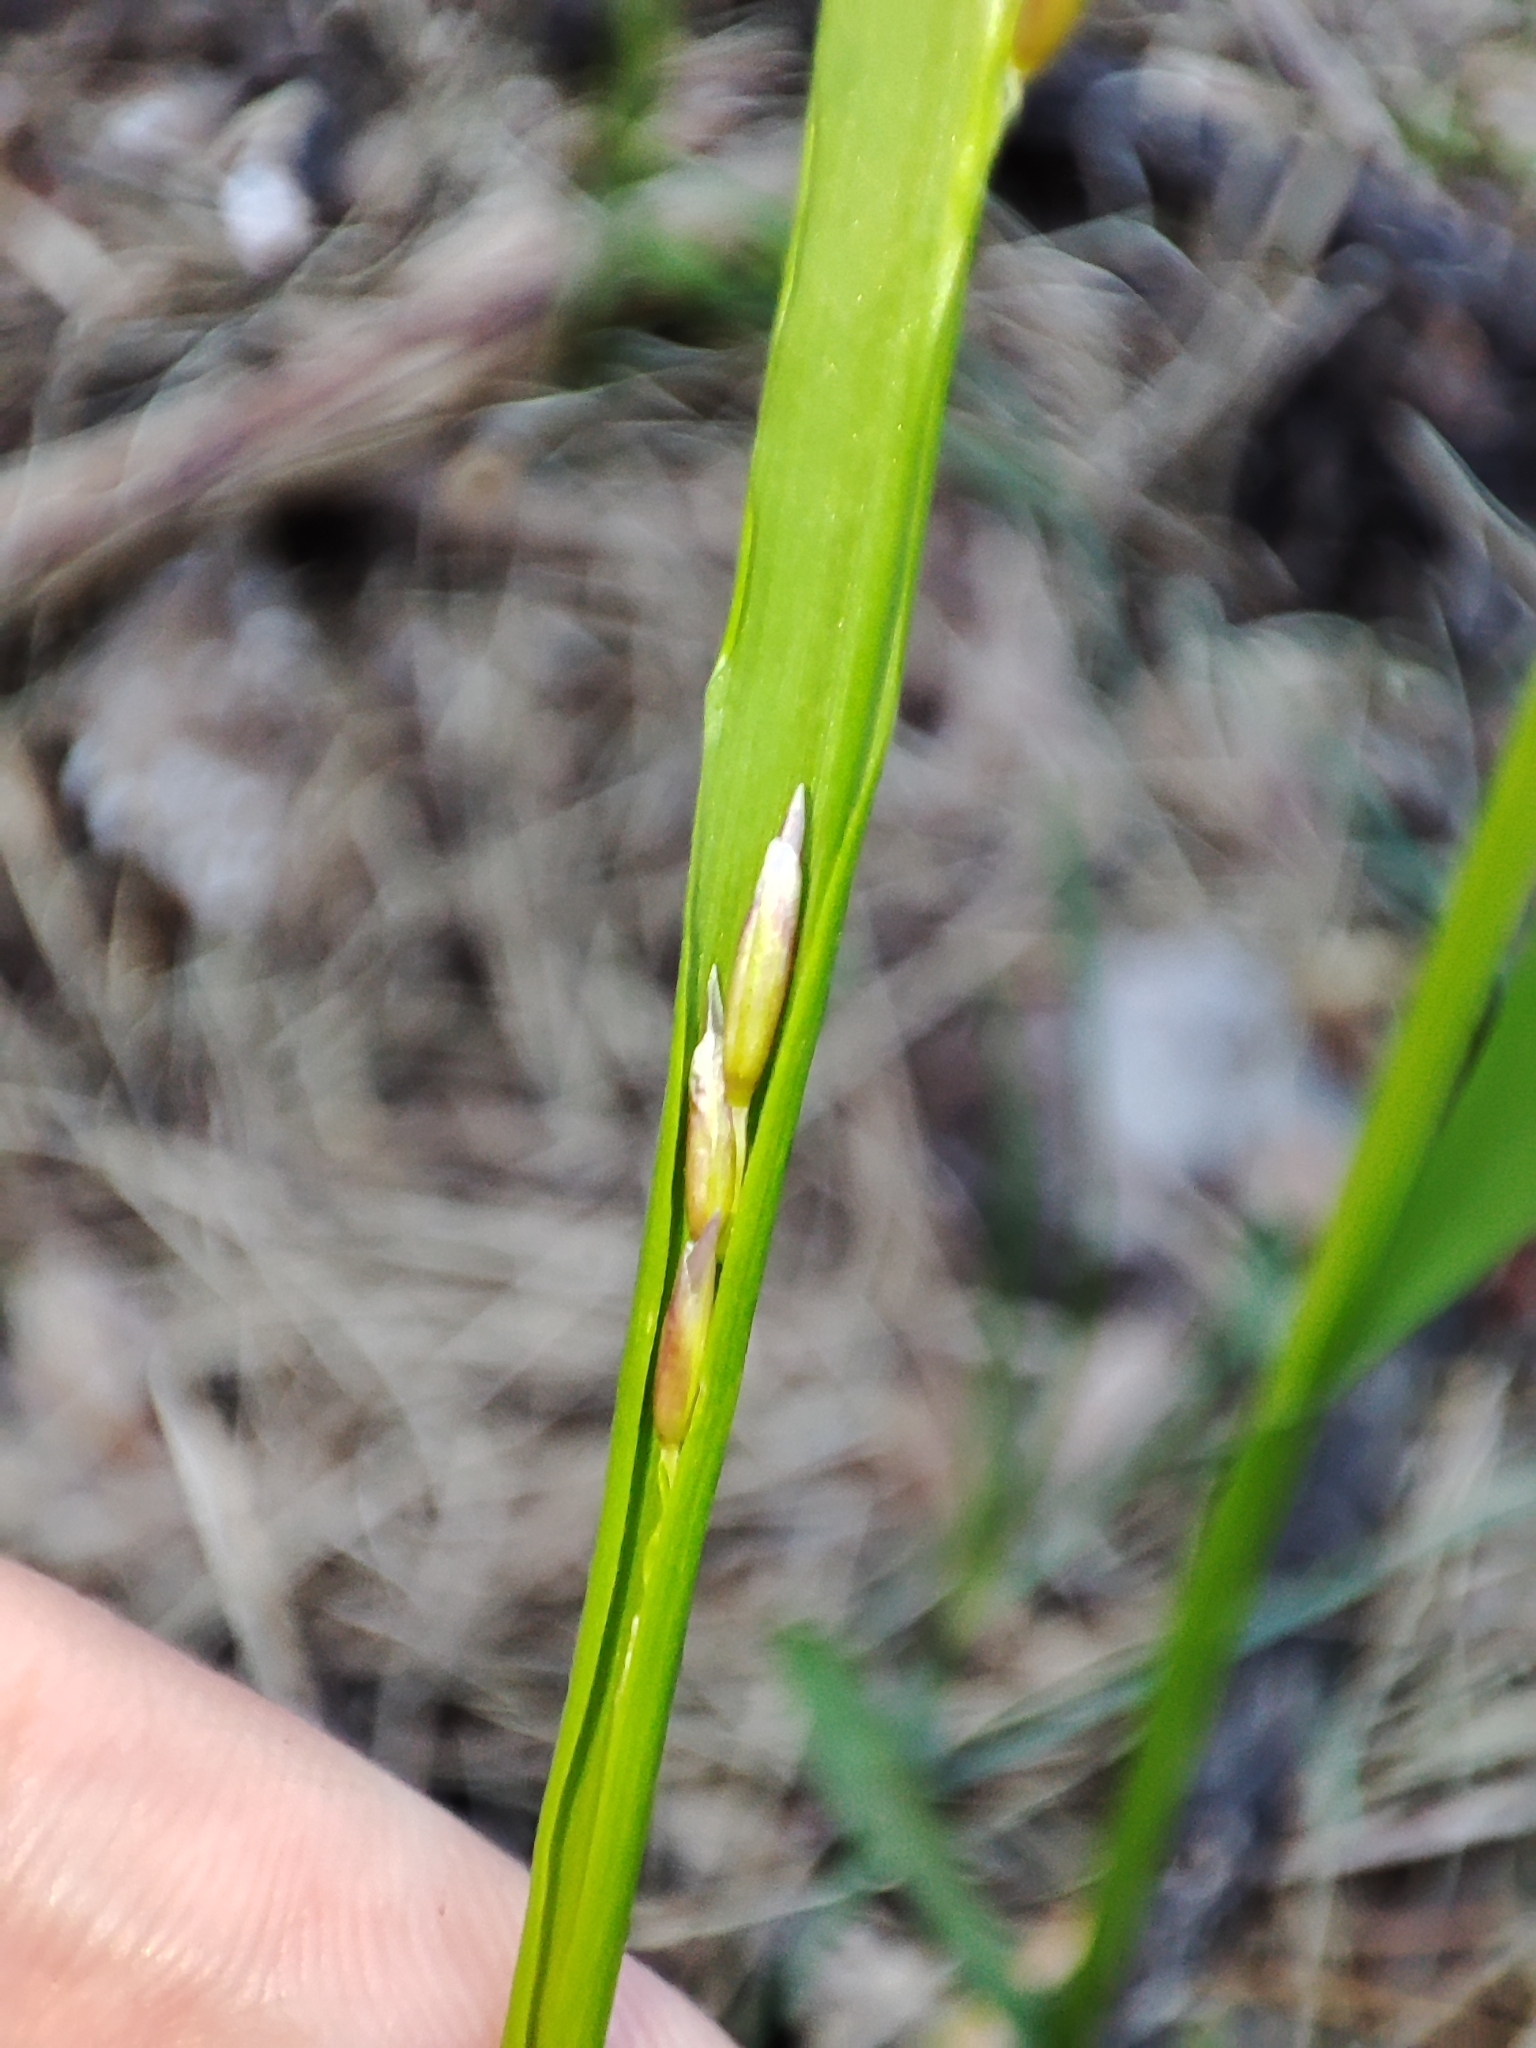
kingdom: Plantae
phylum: Tracheophyta
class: Liliopsida
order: Poales
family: Poaceae
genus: Melica
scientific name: Melica nutans
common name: Mountain melick
